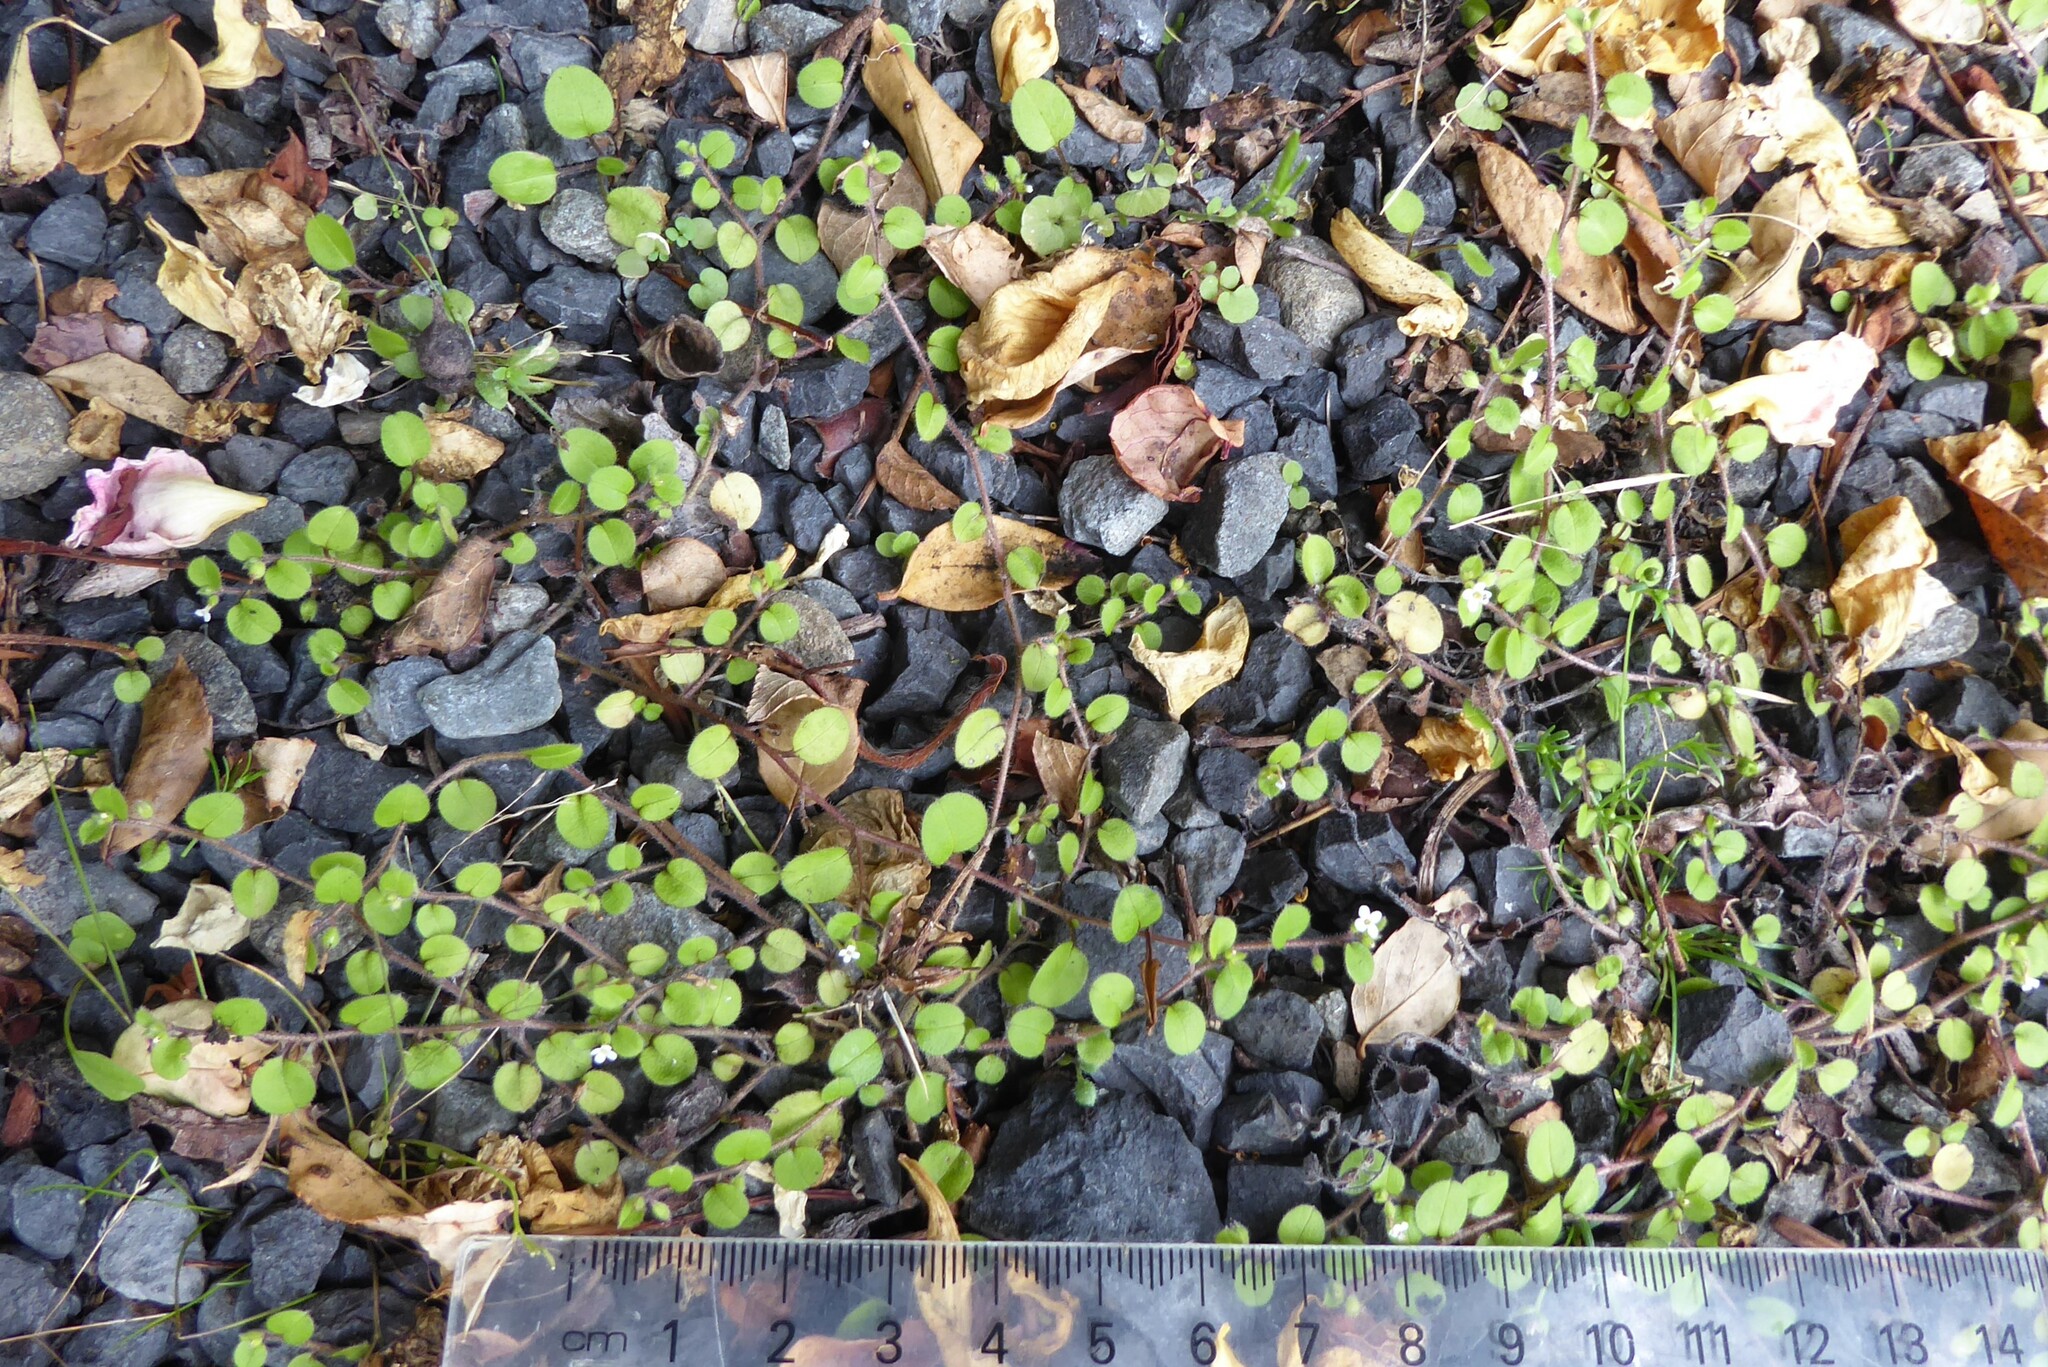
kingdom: Plantae
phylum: Tracheophyta
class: Magnoliopsida
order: Boraginales
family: Boraginaceae
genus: Myosotis
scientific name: Myosotis spathulata
